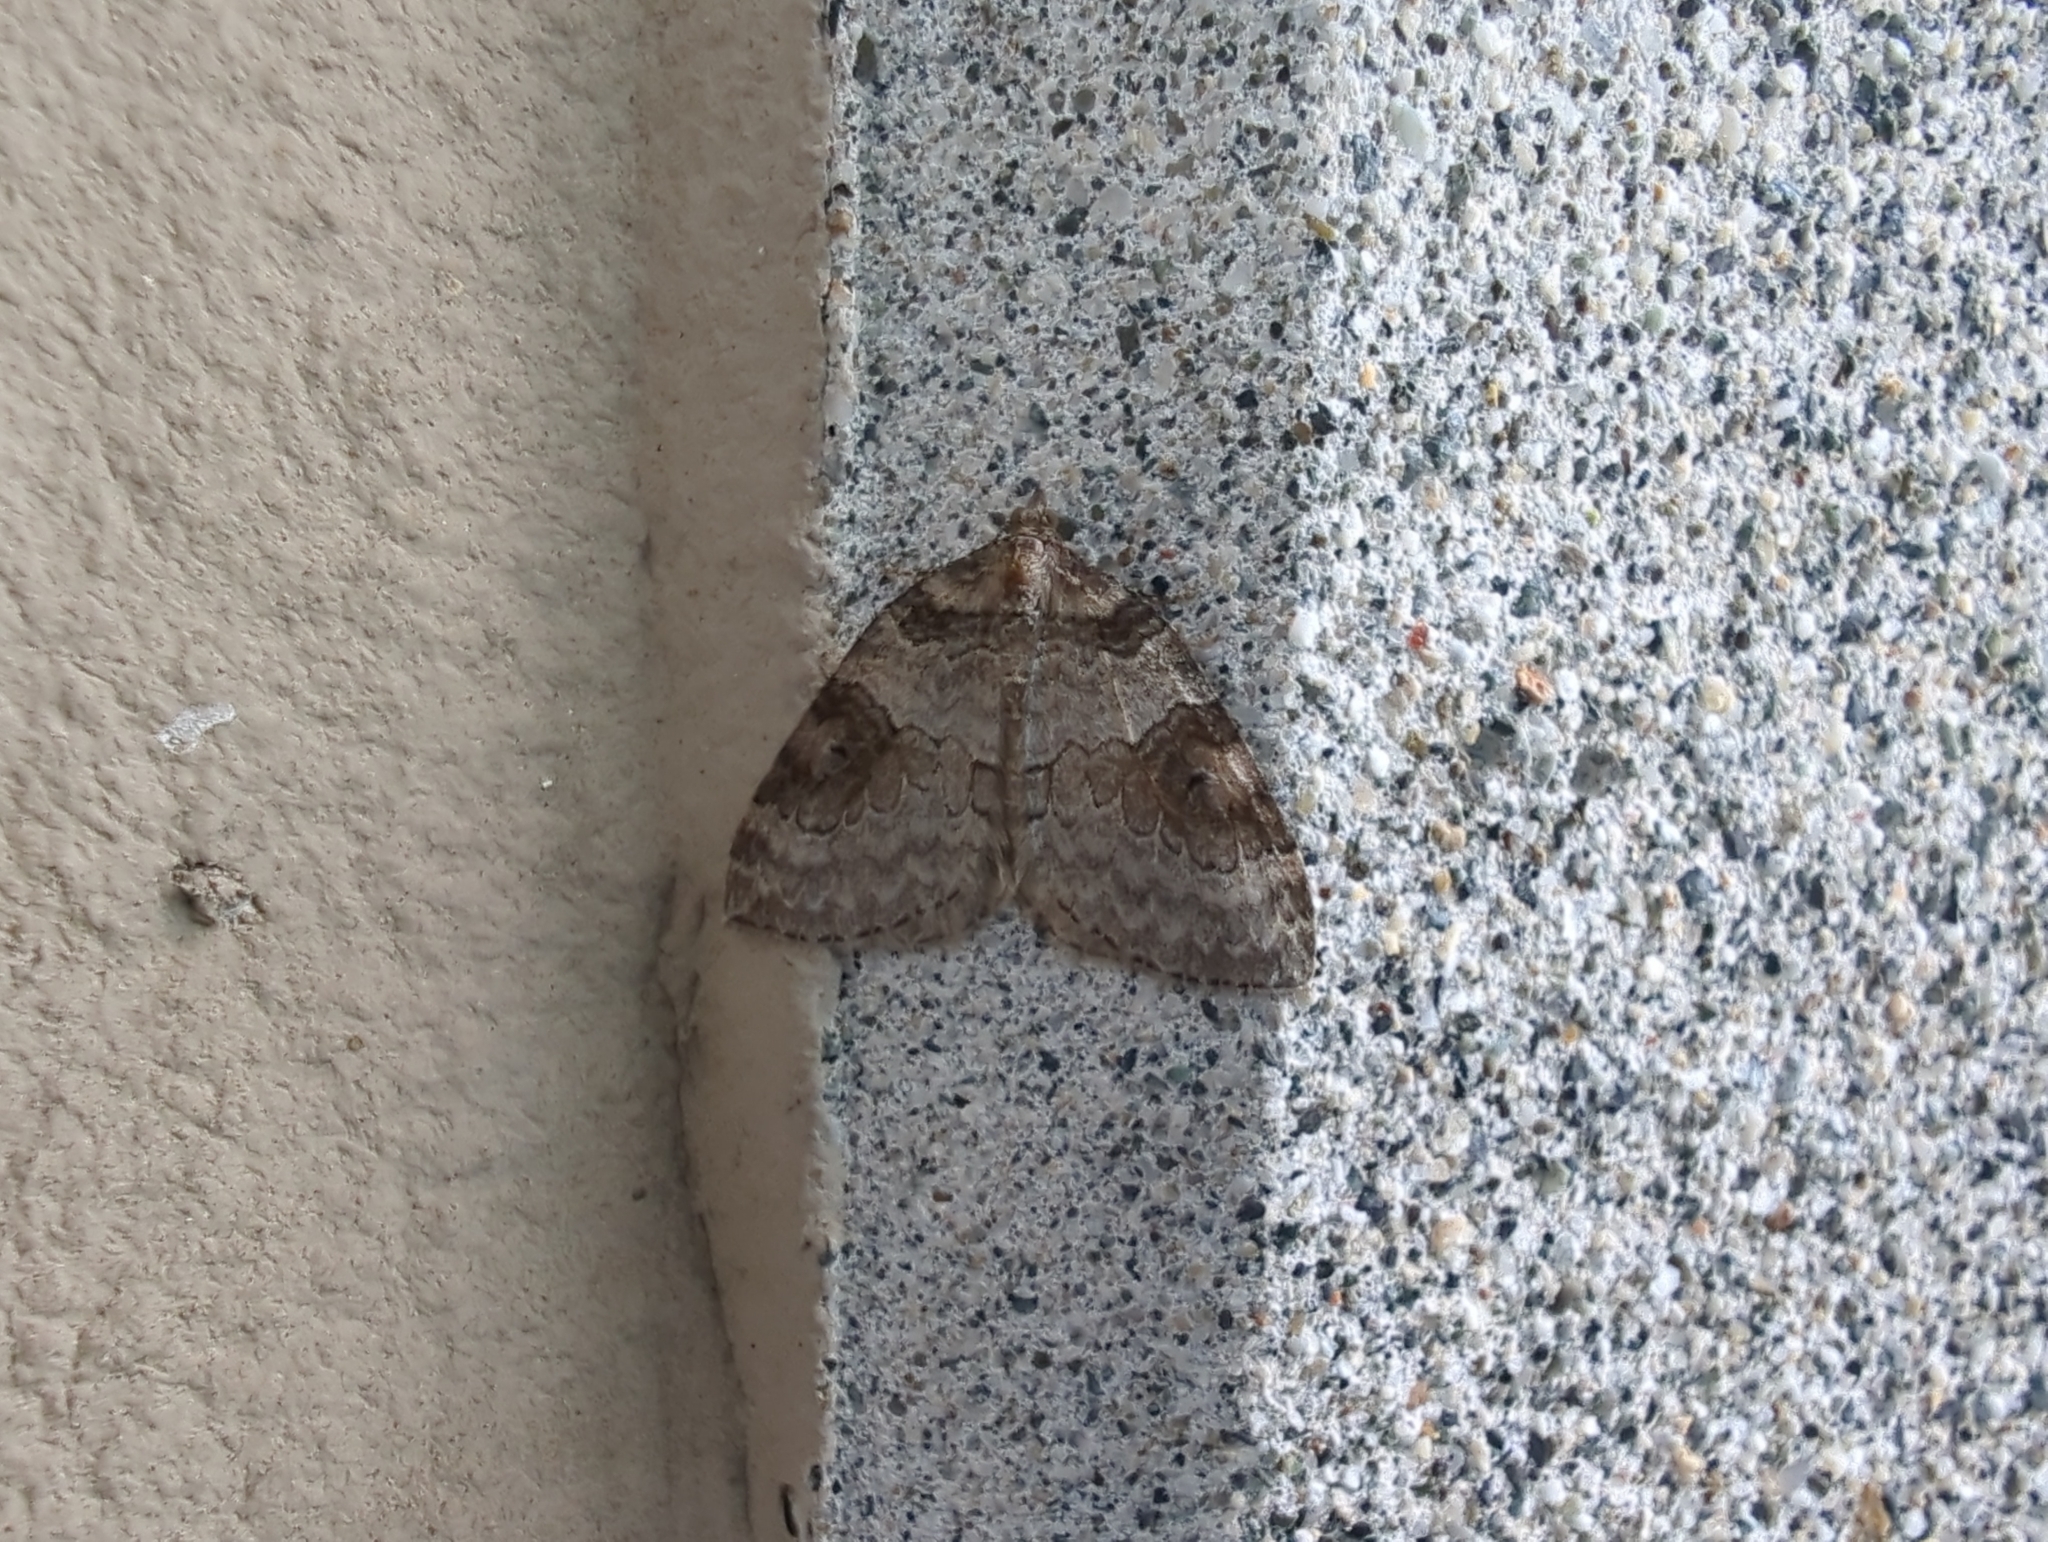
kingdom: Animalia
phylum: Arthropoda
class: Insecta
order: Lepidoptera
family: Geometridae
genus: Plemyria
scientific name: Plemyria georgii
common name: George's carpet moth
